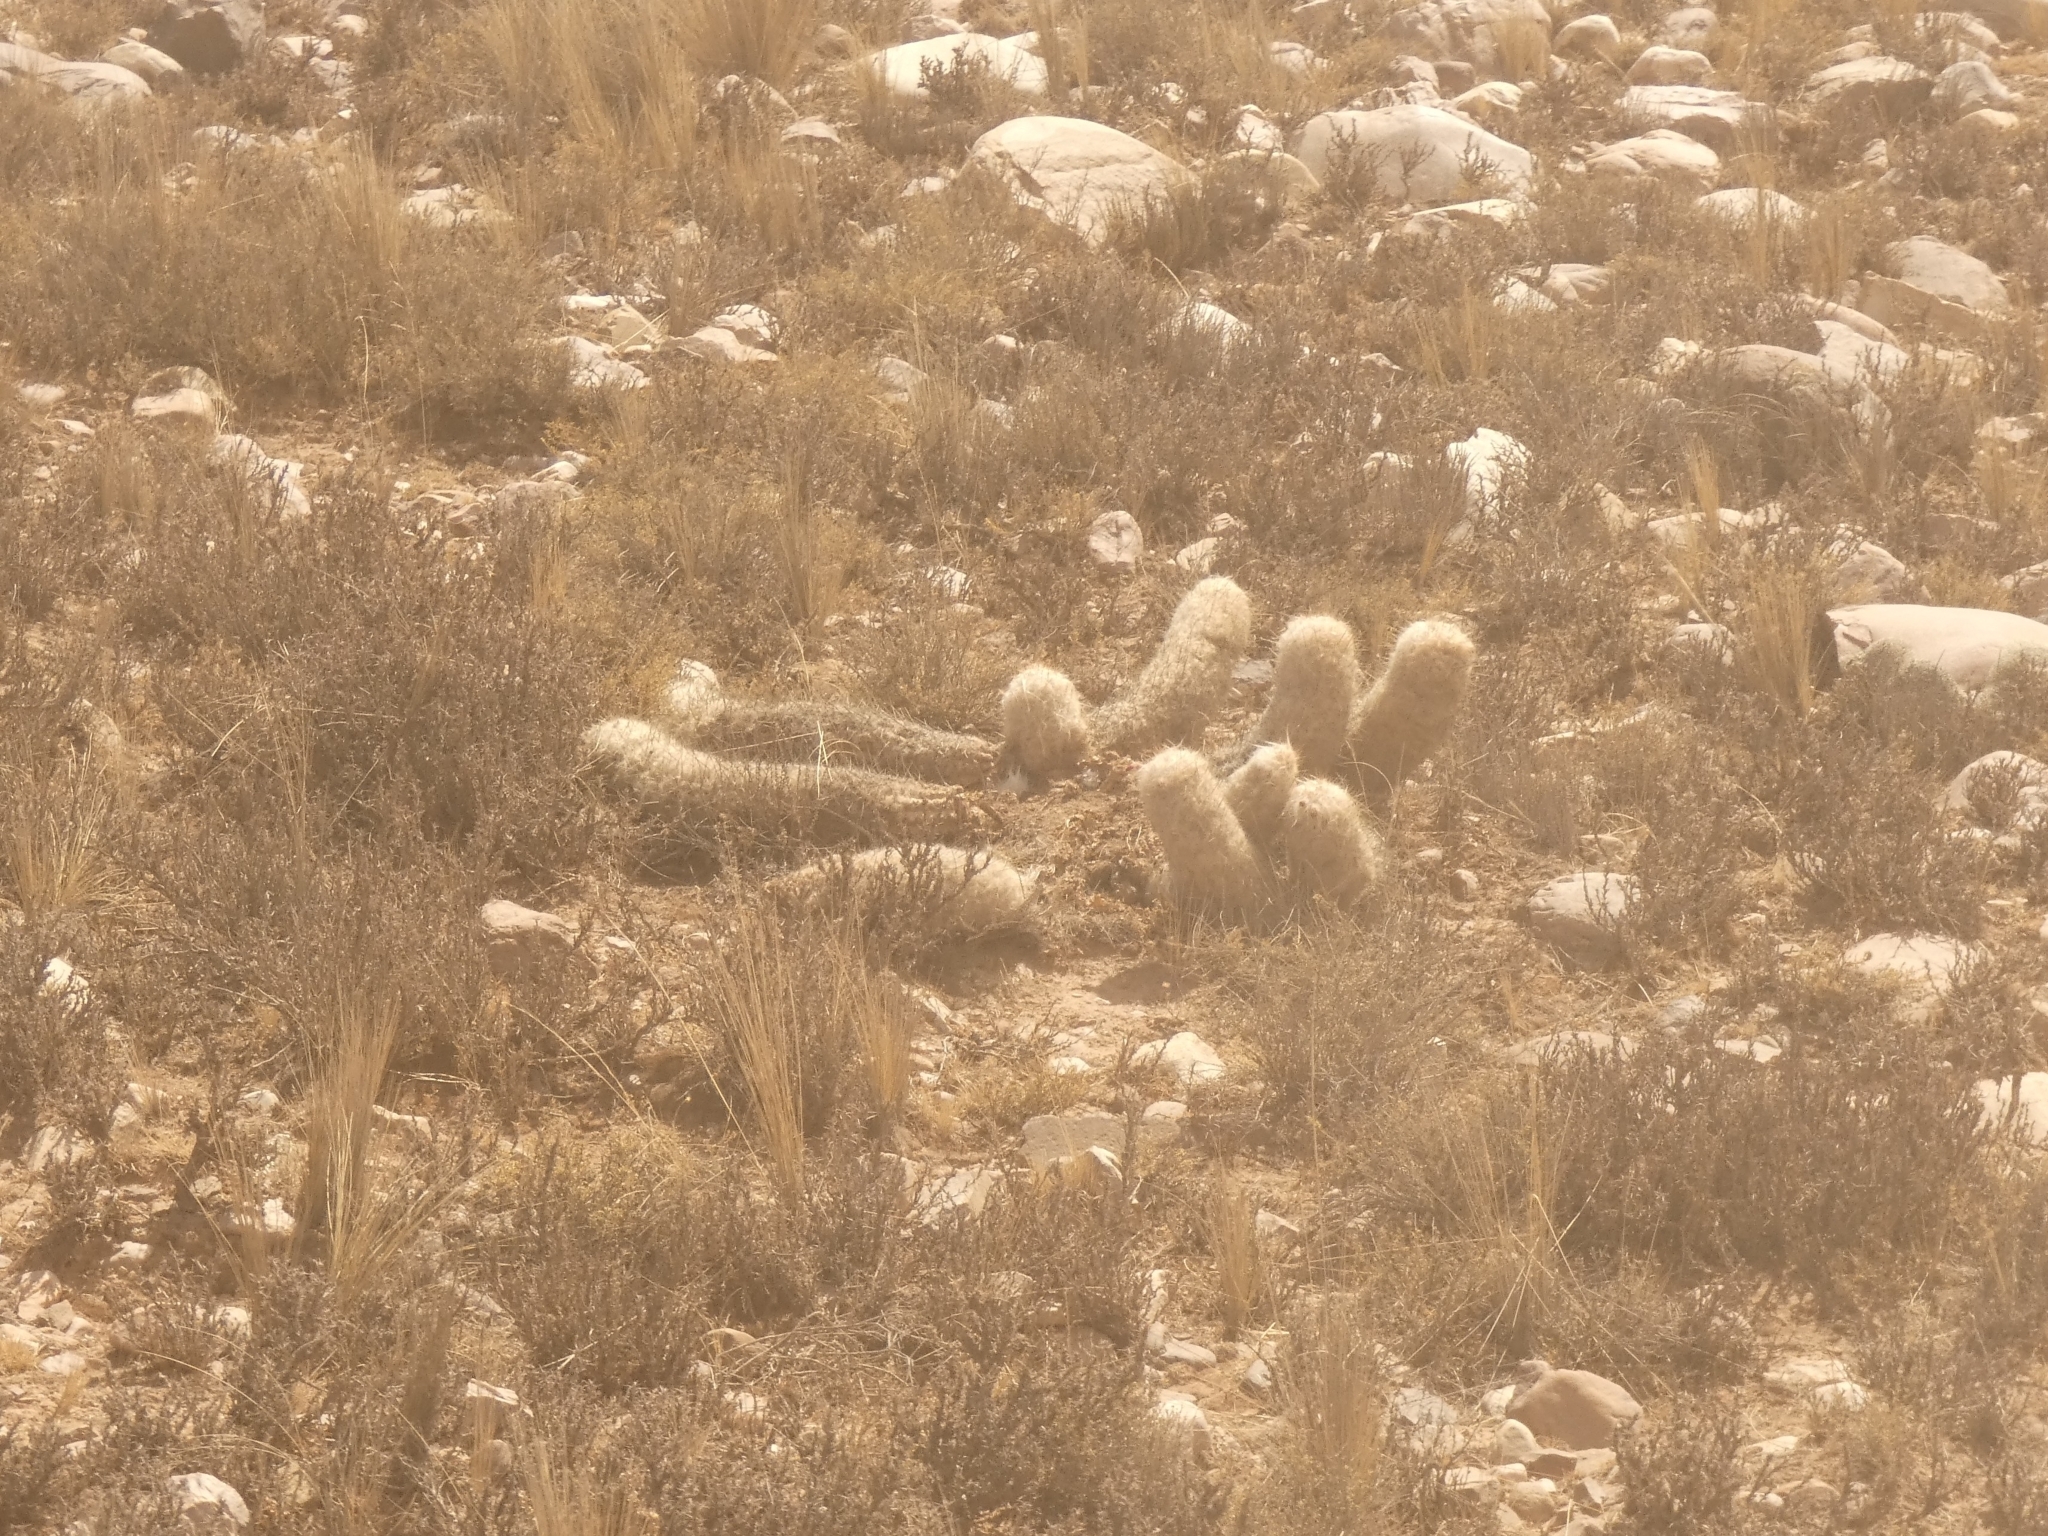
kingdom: Plantae
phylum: Tracheophyta
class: Magnoliopsida
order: Caryophyllales
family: Cactaceae
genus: Oreocereus
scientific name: Oreocereus trollii
